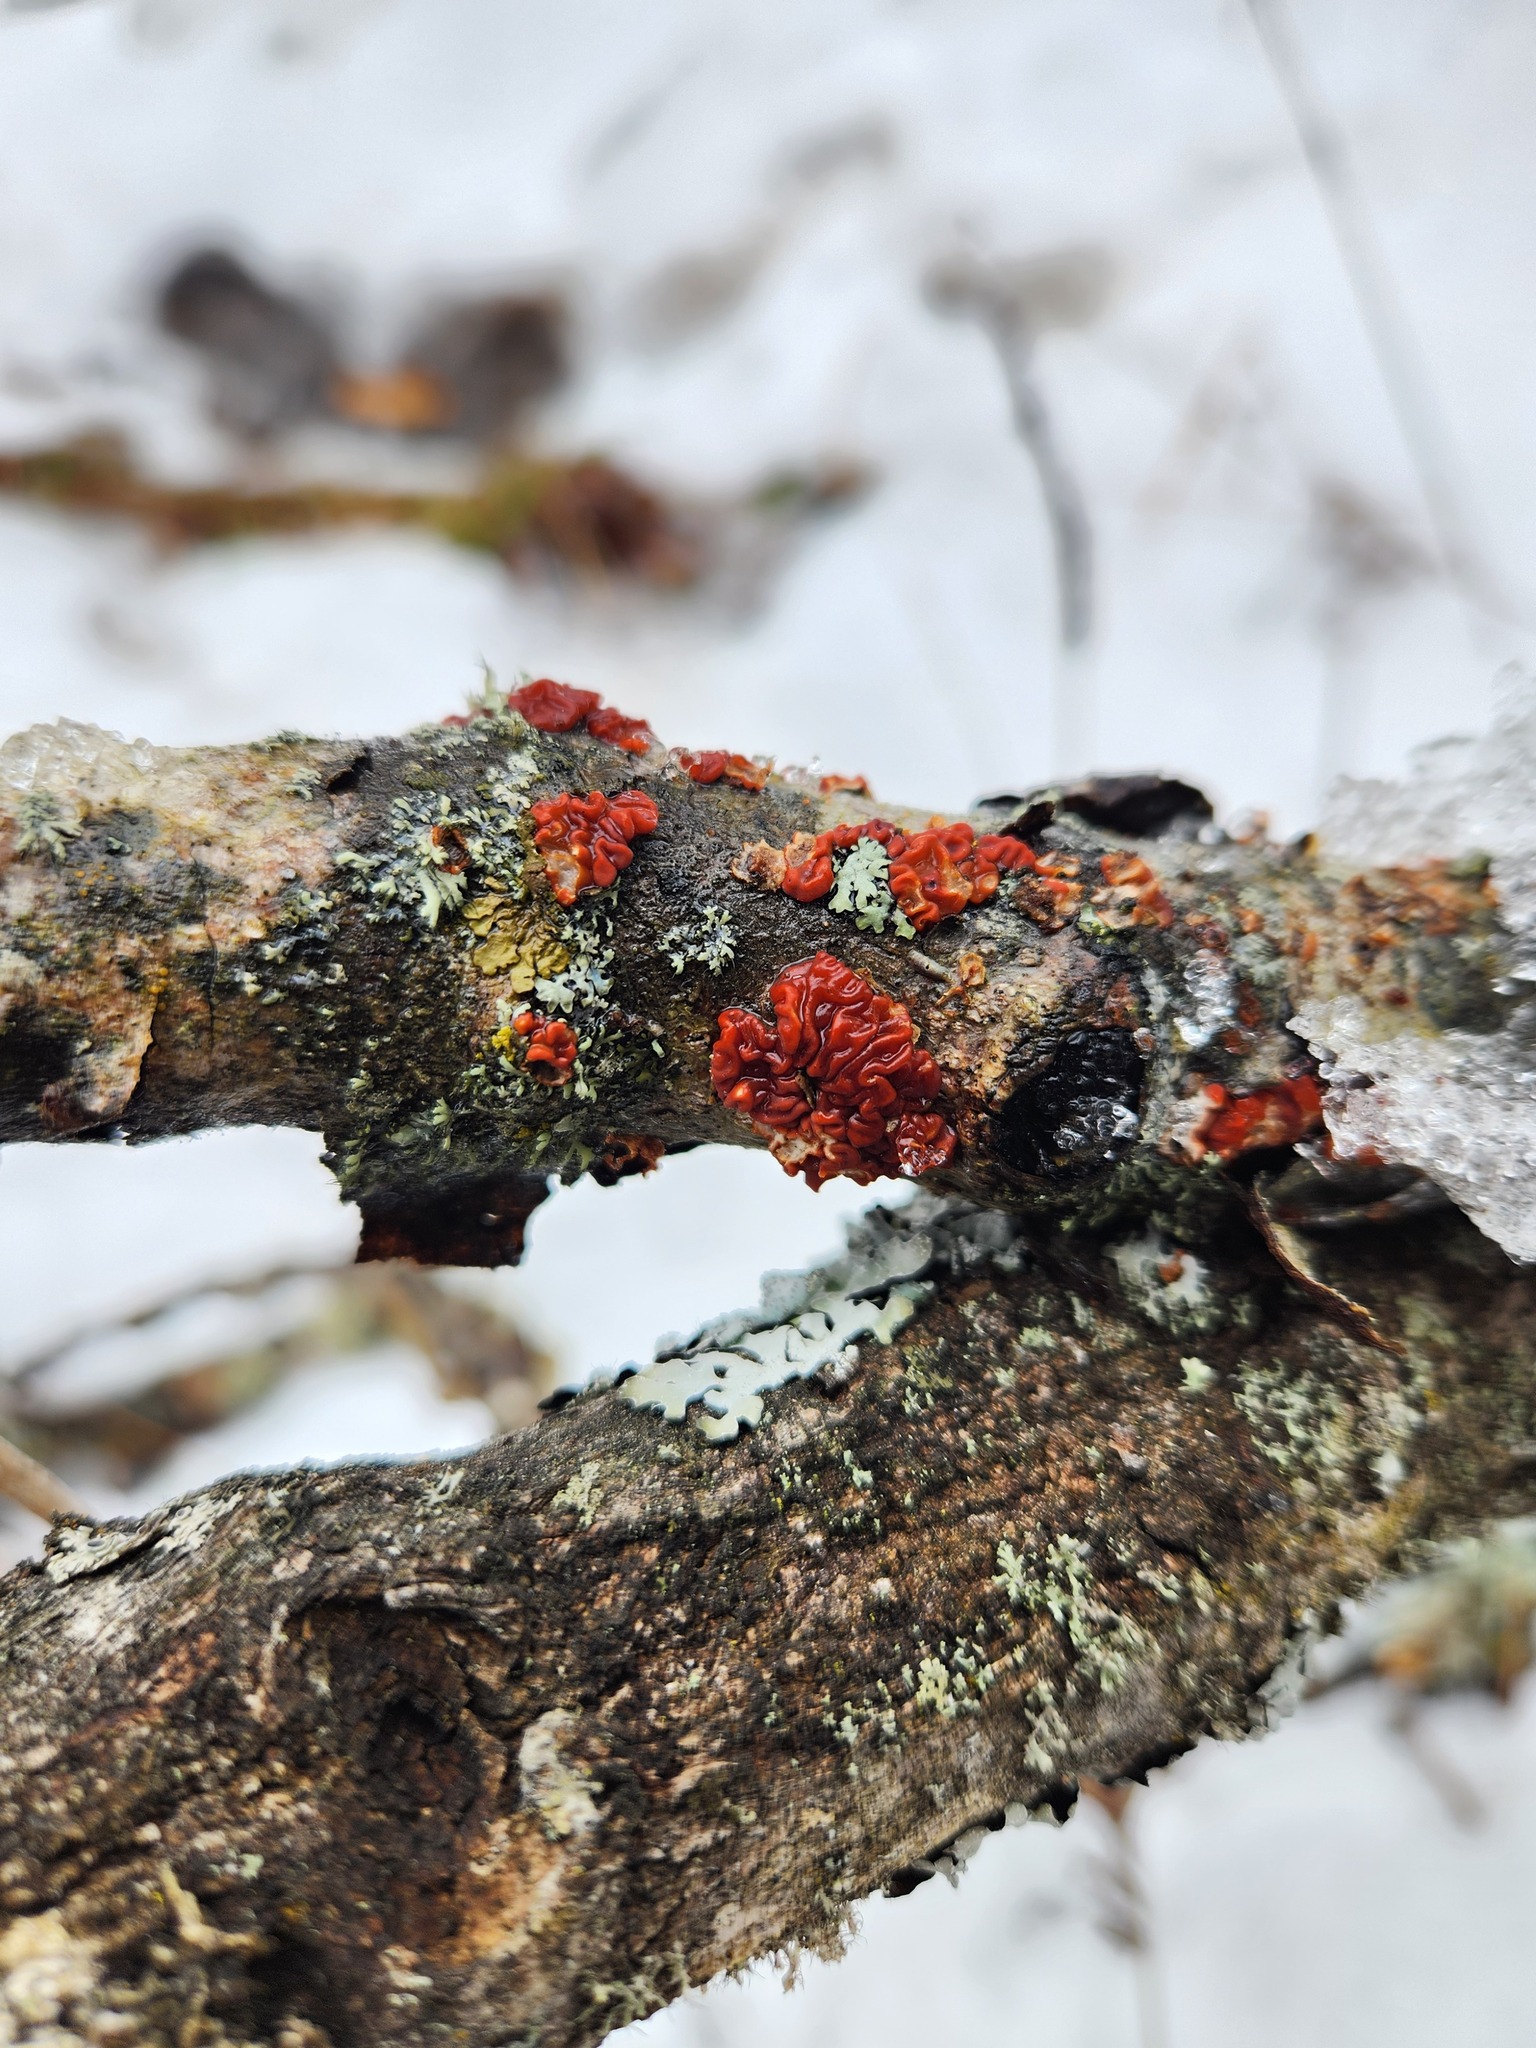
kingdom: Fungi
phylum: Basidiomycota
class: Agaricomycetes
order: Russulales
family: Peniophoraceae
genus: Peniophora
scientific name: Peniophora rufa
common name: Red tree brain fungus
